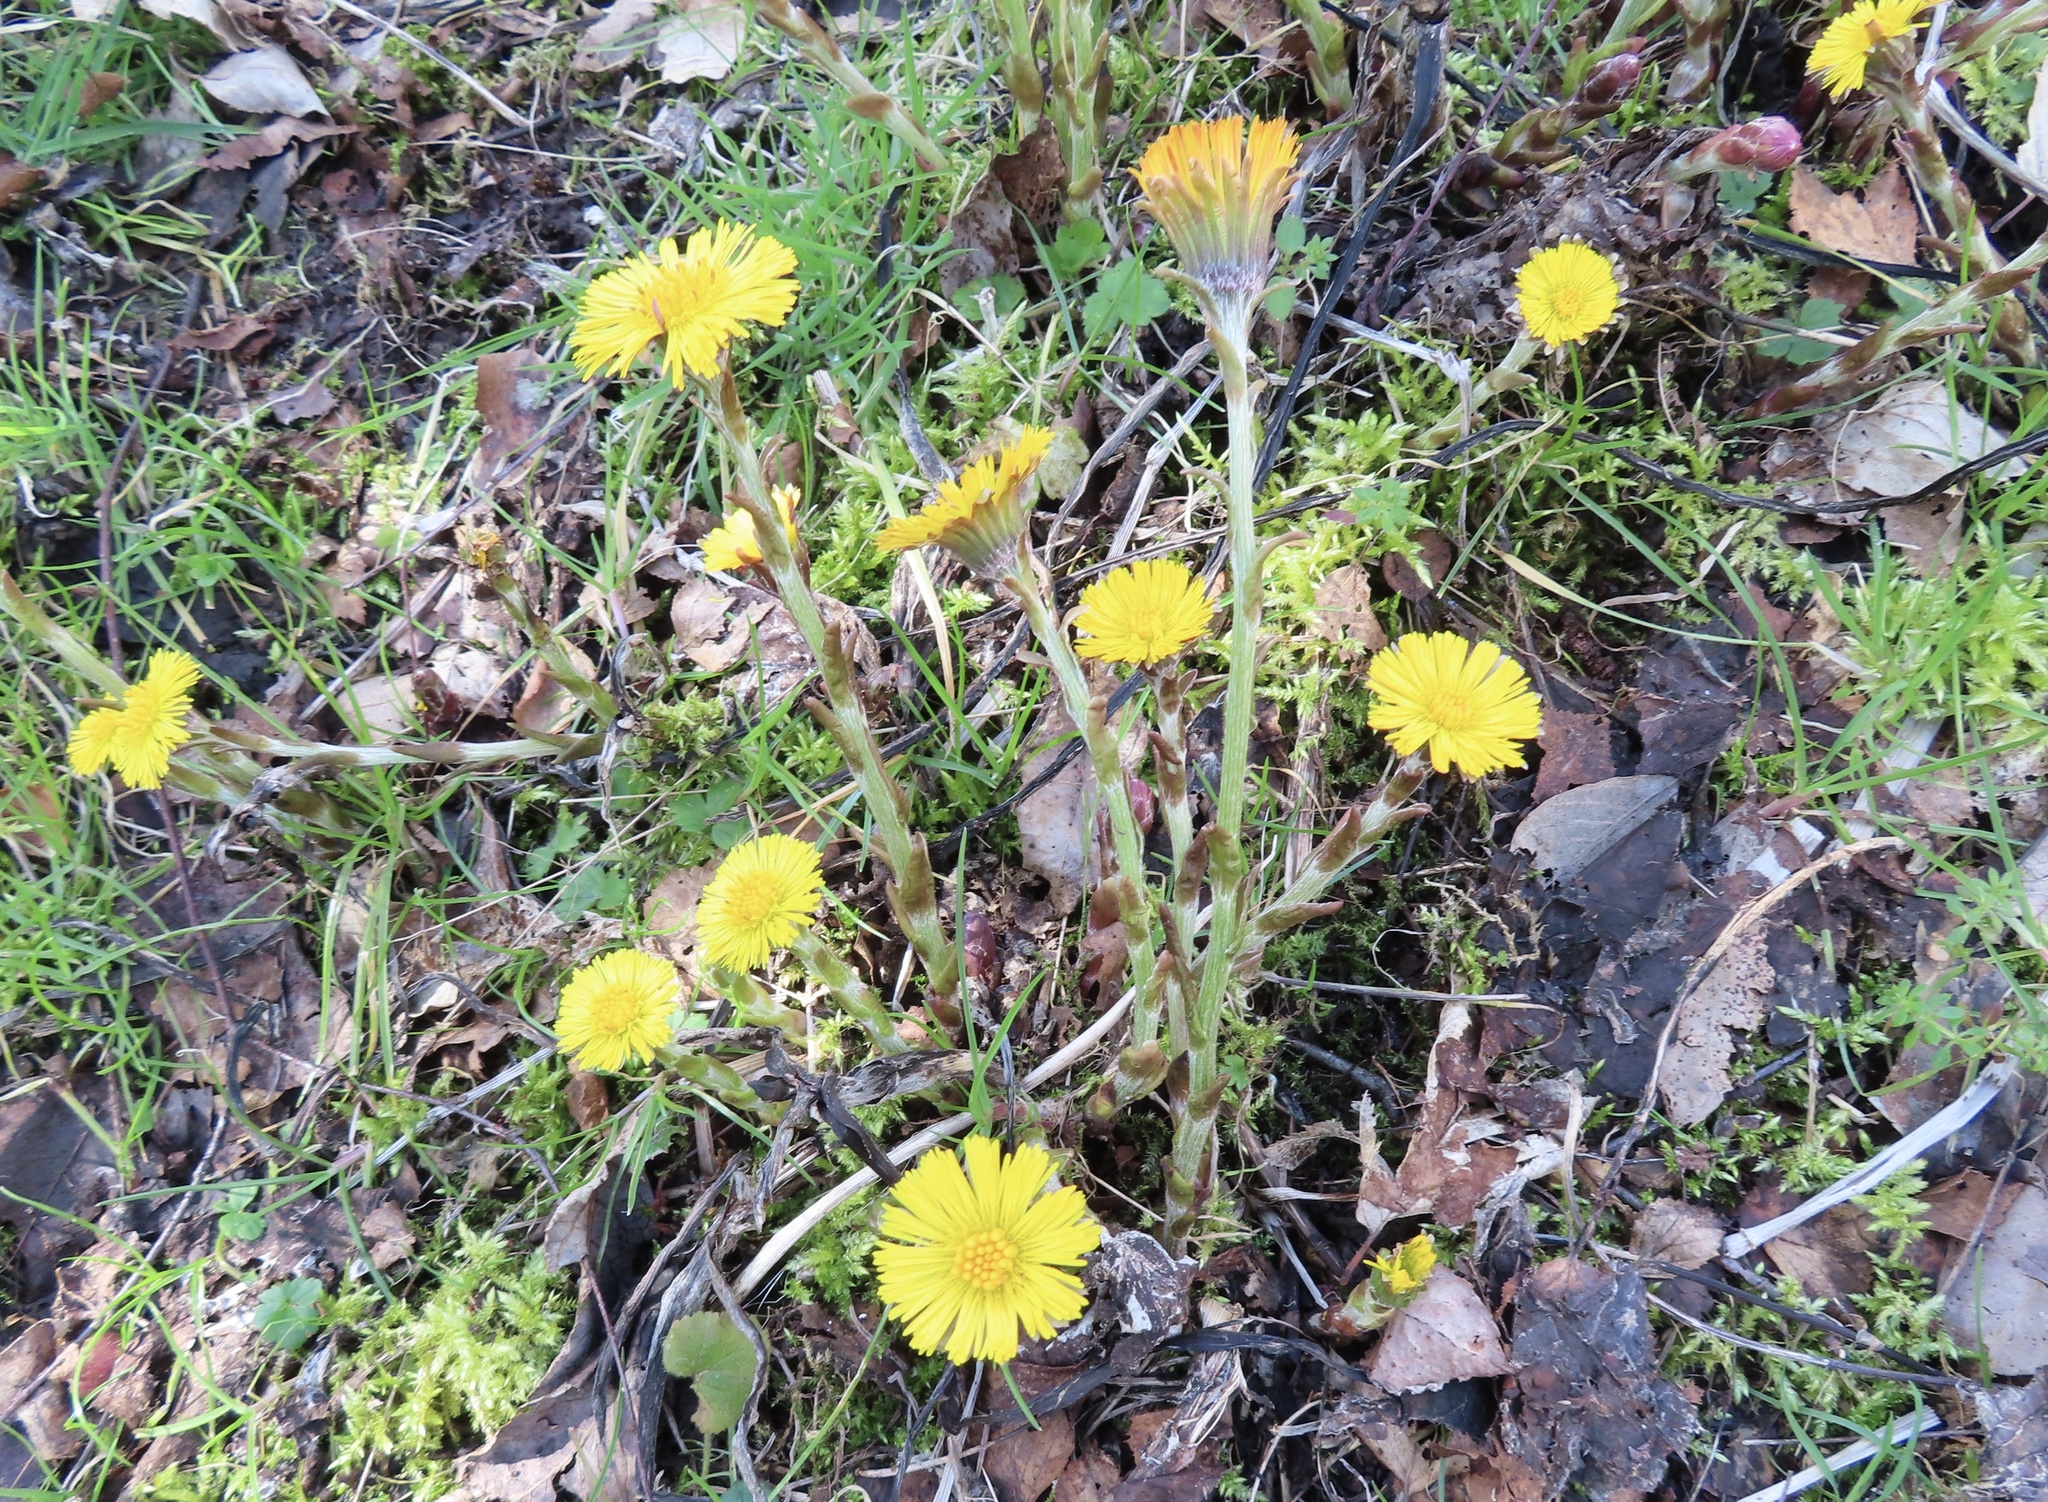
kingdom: Plantae
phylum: Tracheophyta
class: Magnoliopsida
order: Asterales
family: Asteraceae
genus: Tussilago
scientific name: Tussilago farfara
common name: Coltsfoot
